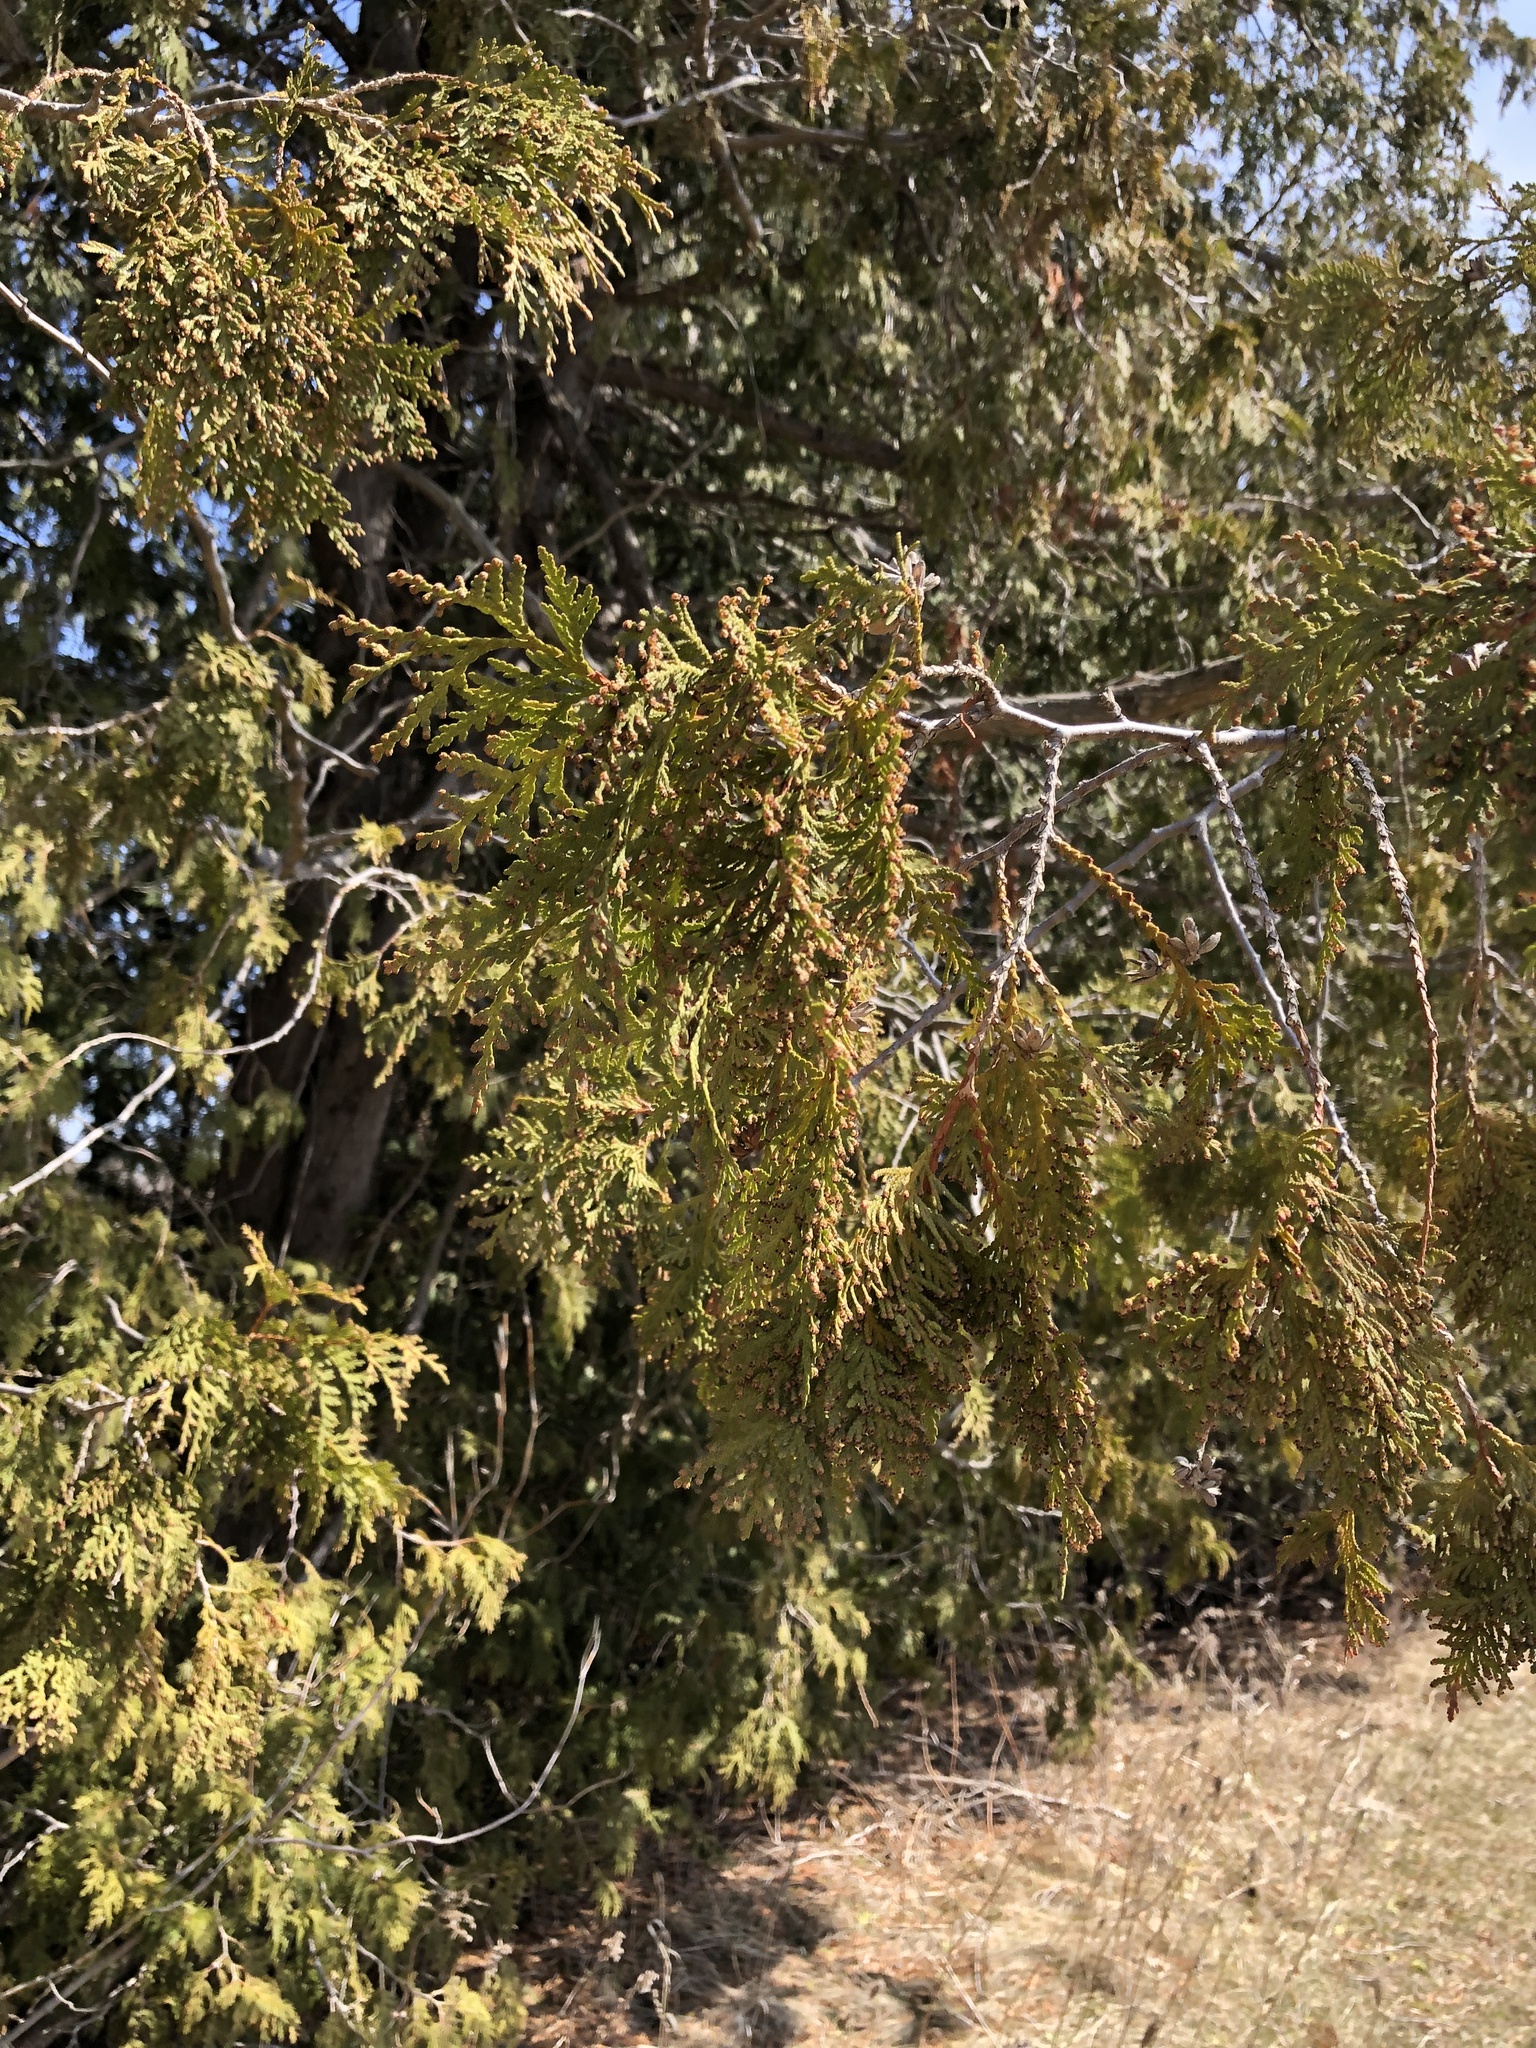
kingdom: Plantae
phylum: Tracheophyta
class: Pinopsida
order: Pinales
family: Cupressaceae
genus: Thuja
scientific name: Thuja occidentalis
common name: Northern white-cedar
